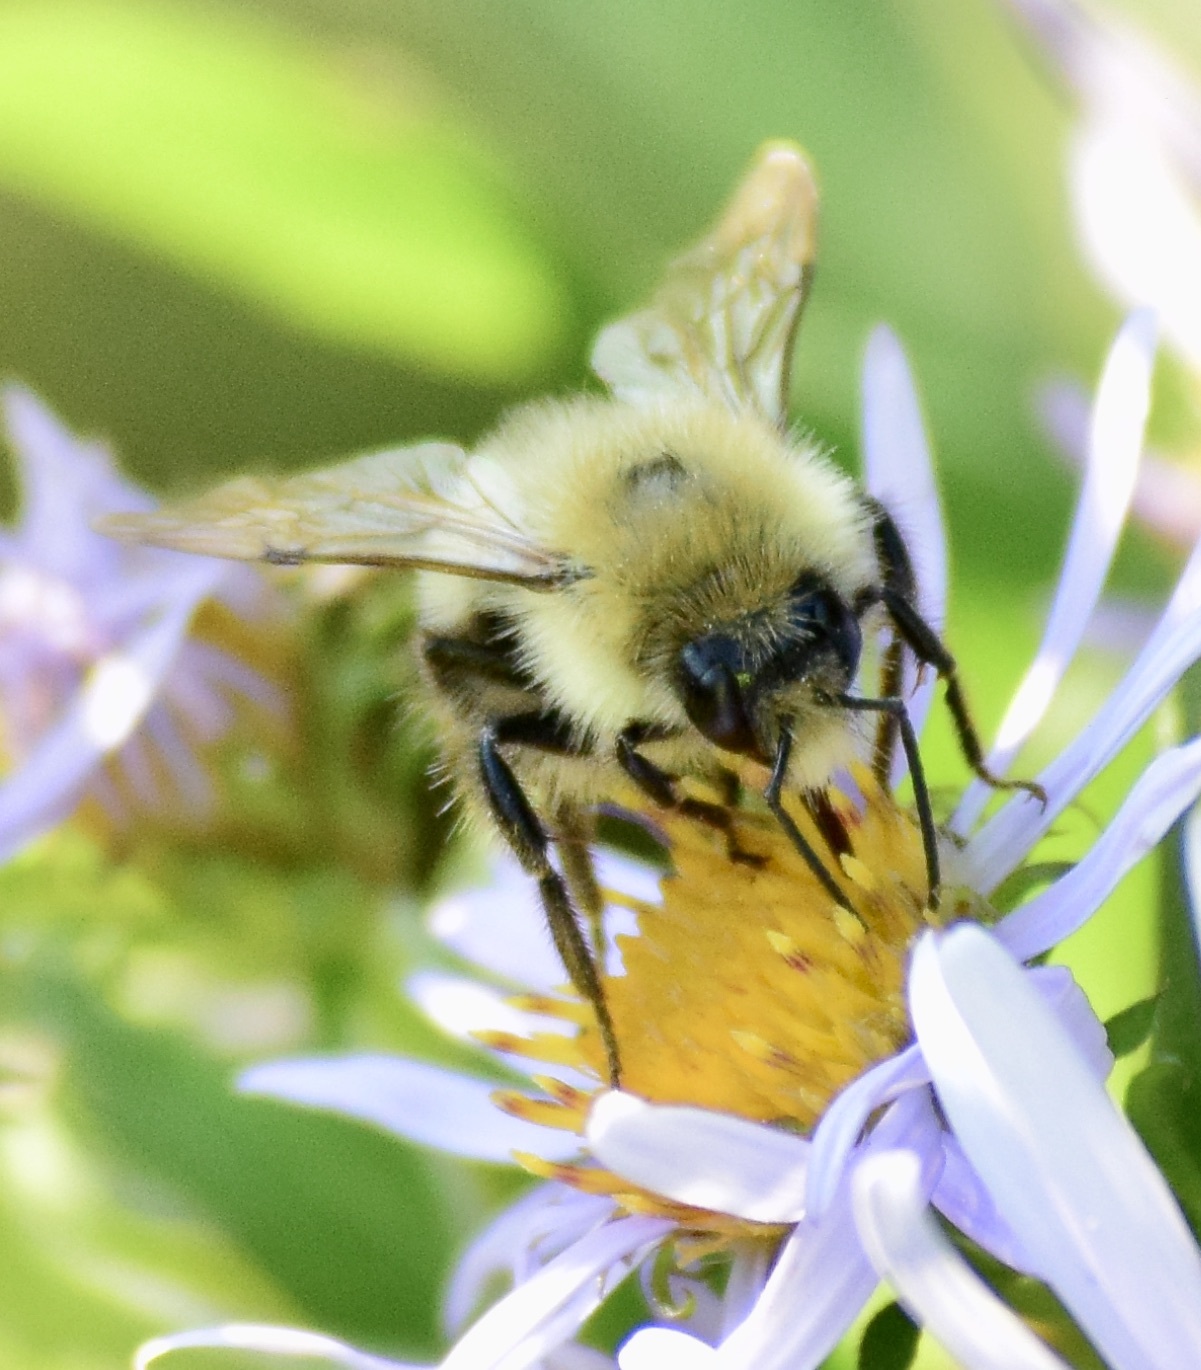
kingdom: Animalia
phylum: Arthropoda
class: Insecta
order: Hymenoptera
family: Apidae
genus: Pyrobombus
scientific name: Pyrobombus
